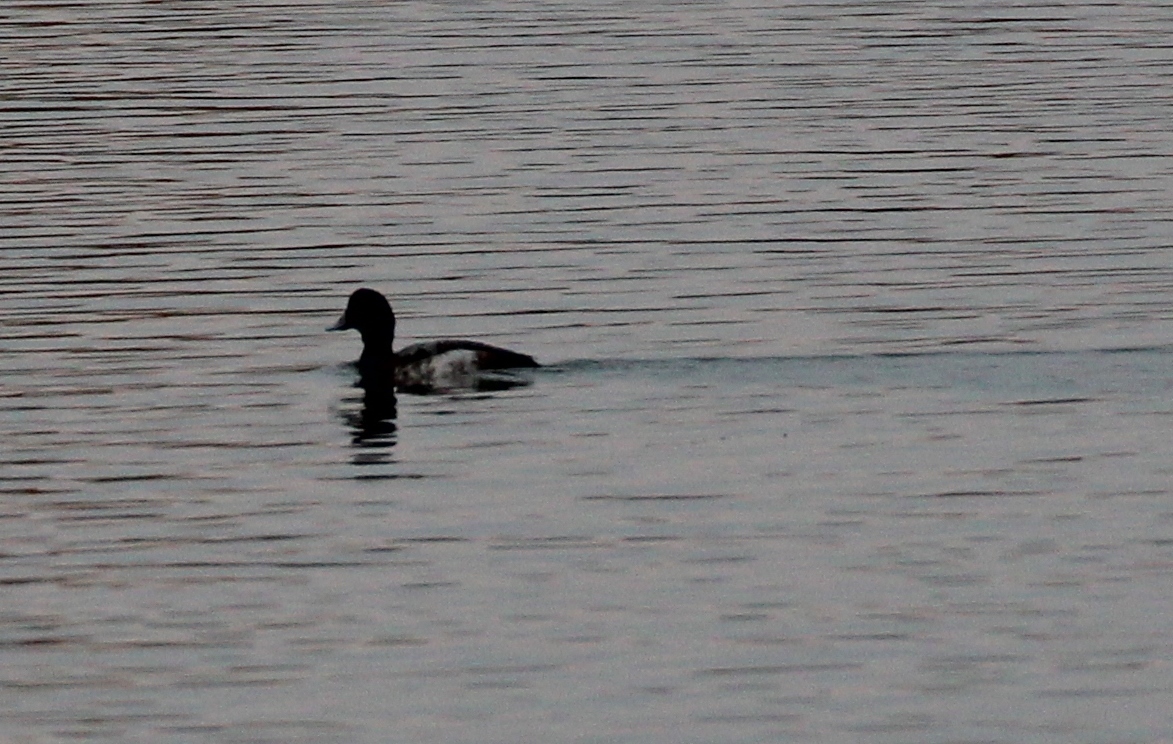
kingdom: Animalia
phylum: Chordata
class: Aves
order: Anseriformes
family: Anatidae
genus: Aythya
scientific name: Aythya
